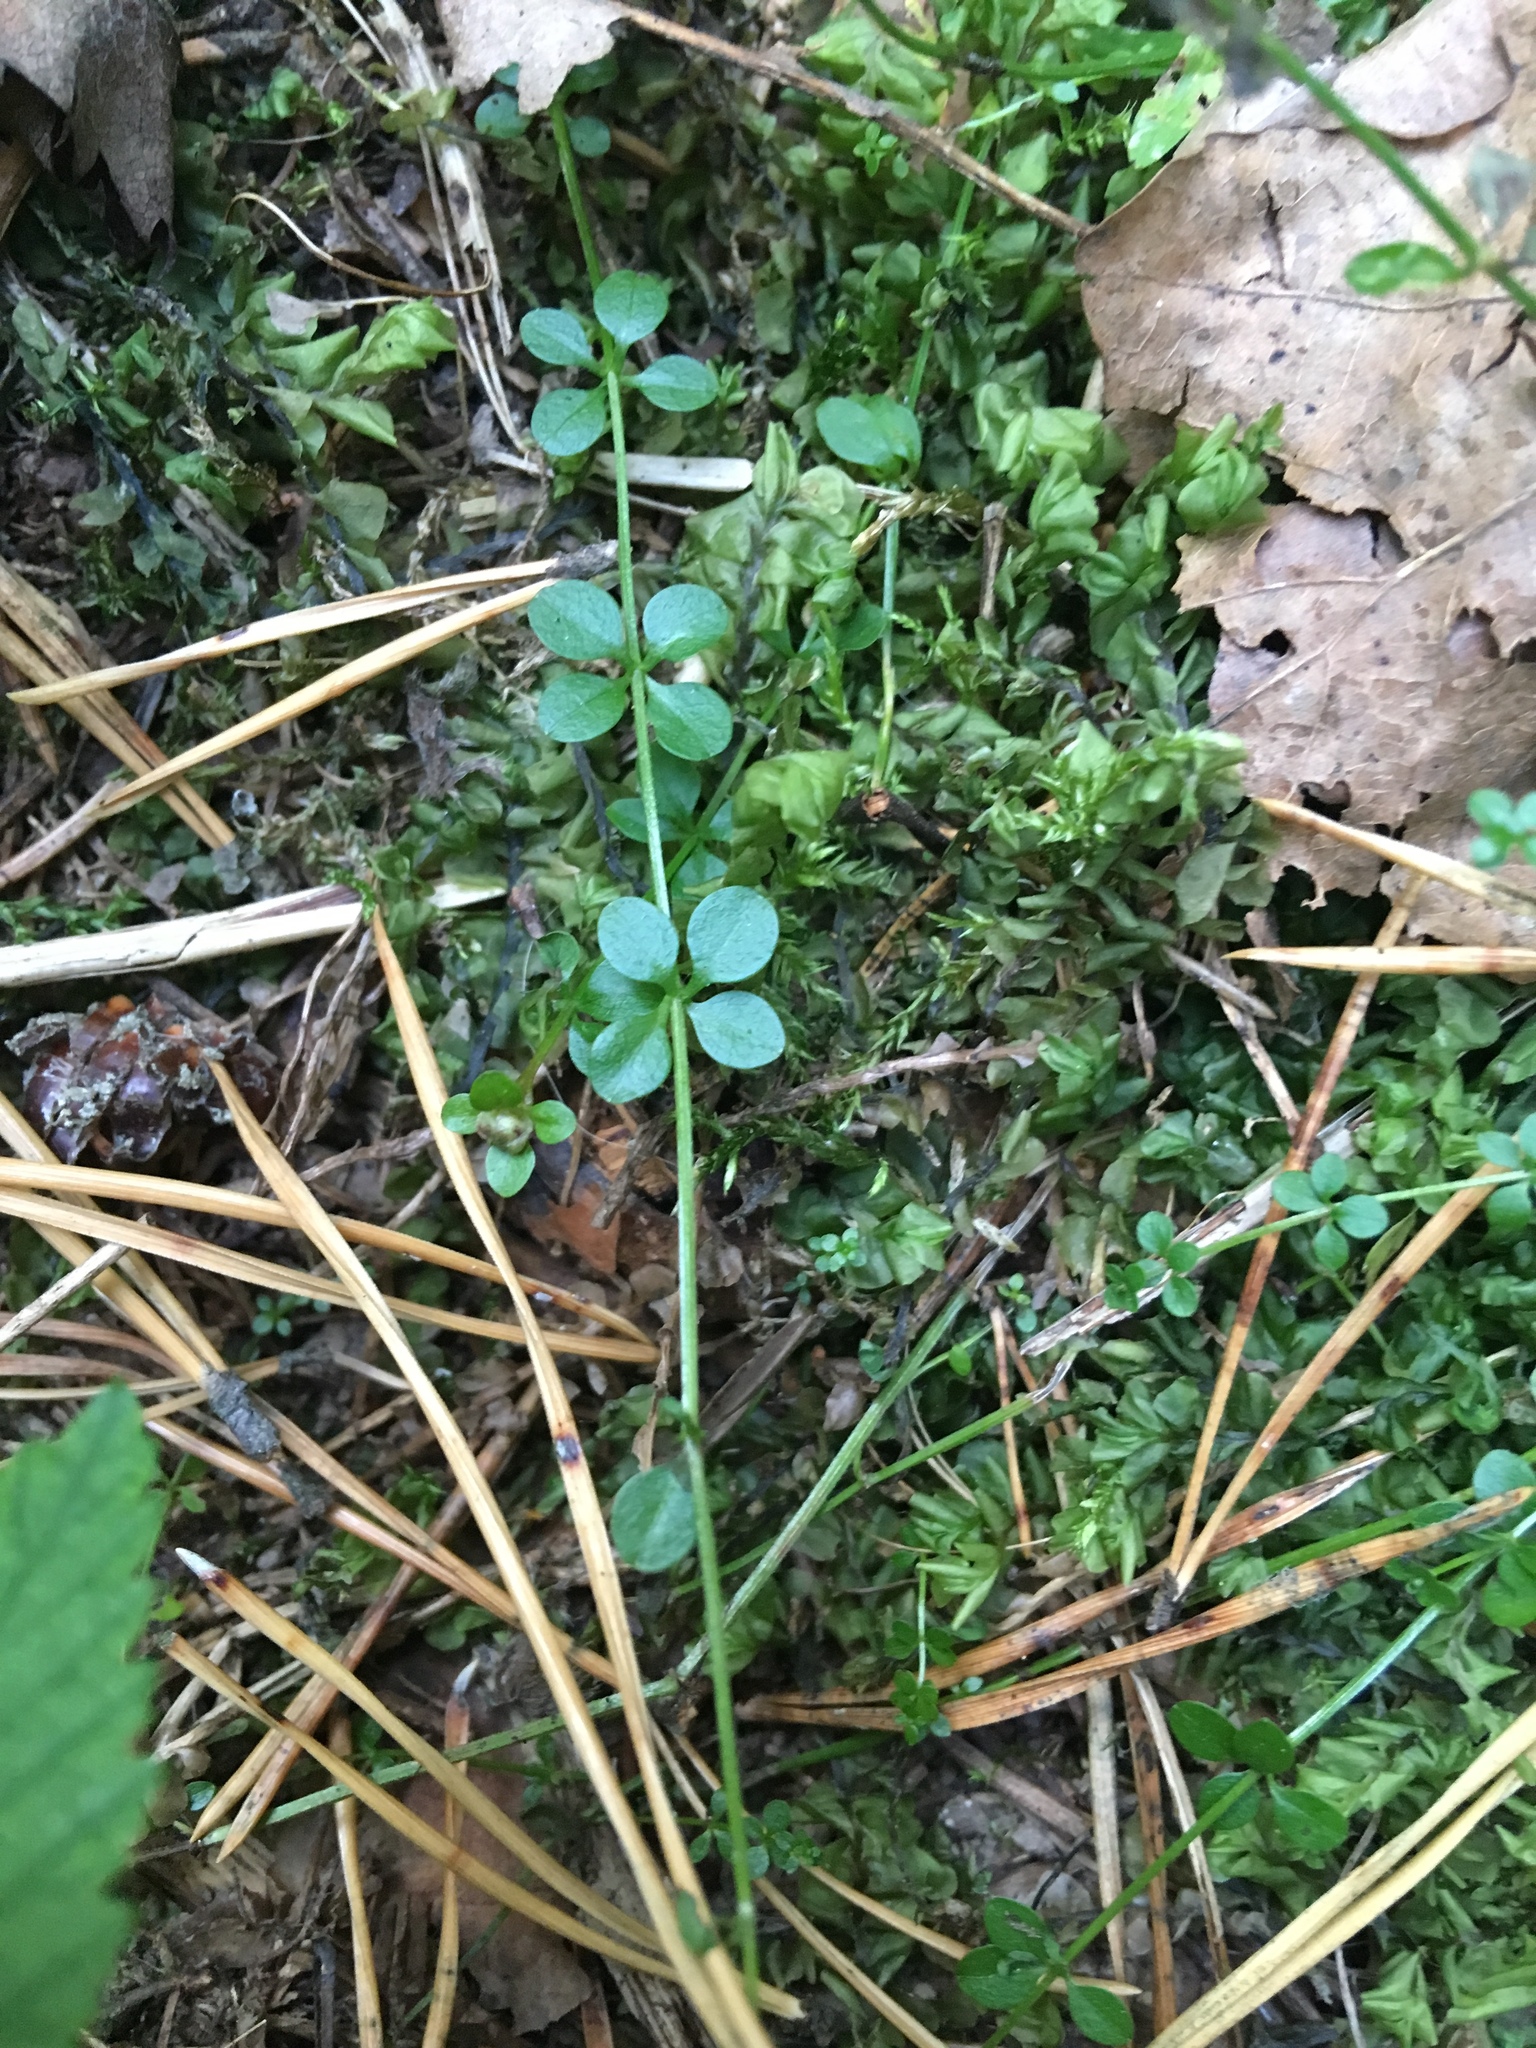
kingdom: Plantae
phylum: Tracheophyta
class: Magnoliopsida
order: Gentianales
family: Rubiaceae
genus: Galium
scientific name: Galium palustre
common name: Common marsh-bedstraw
